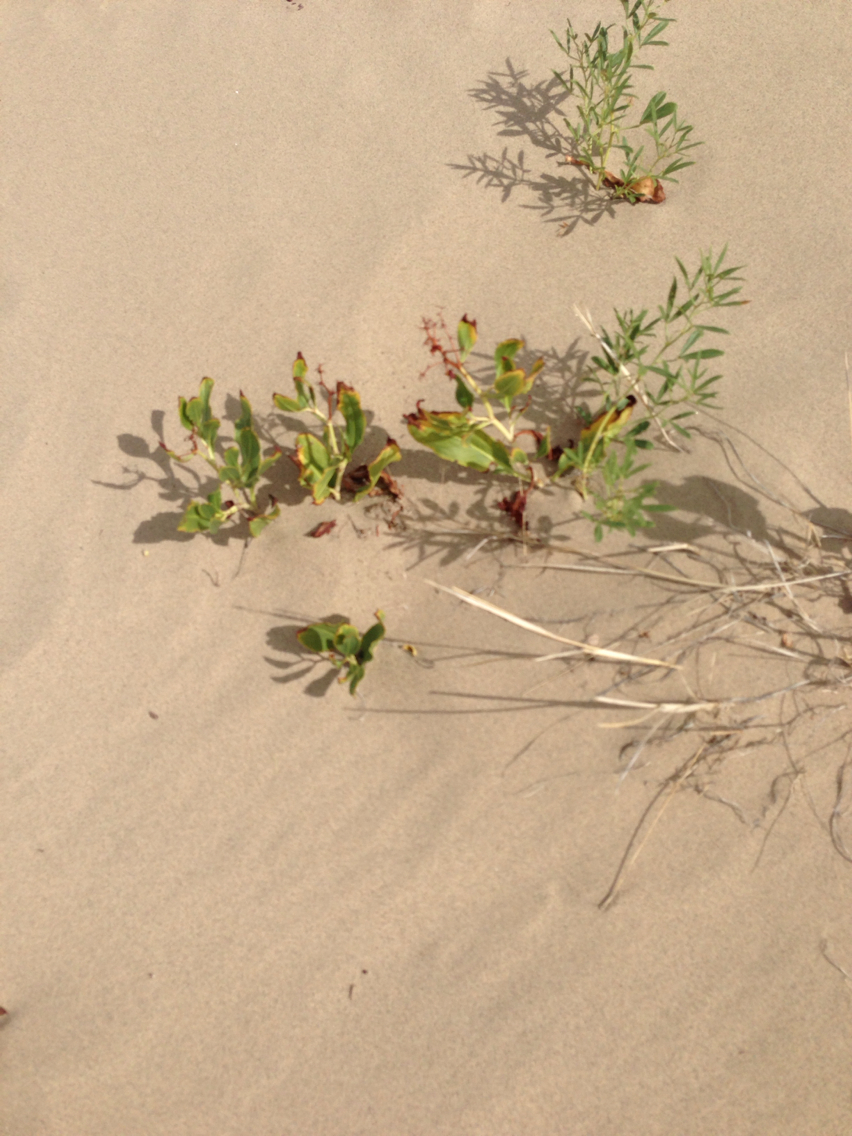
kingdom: Plantae
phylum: Tracheophyta
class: Magnoliopsida
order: Caryophyllales
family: Polygonaceae
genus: Rumex
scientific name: Rumex venosus
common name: Winged dock
